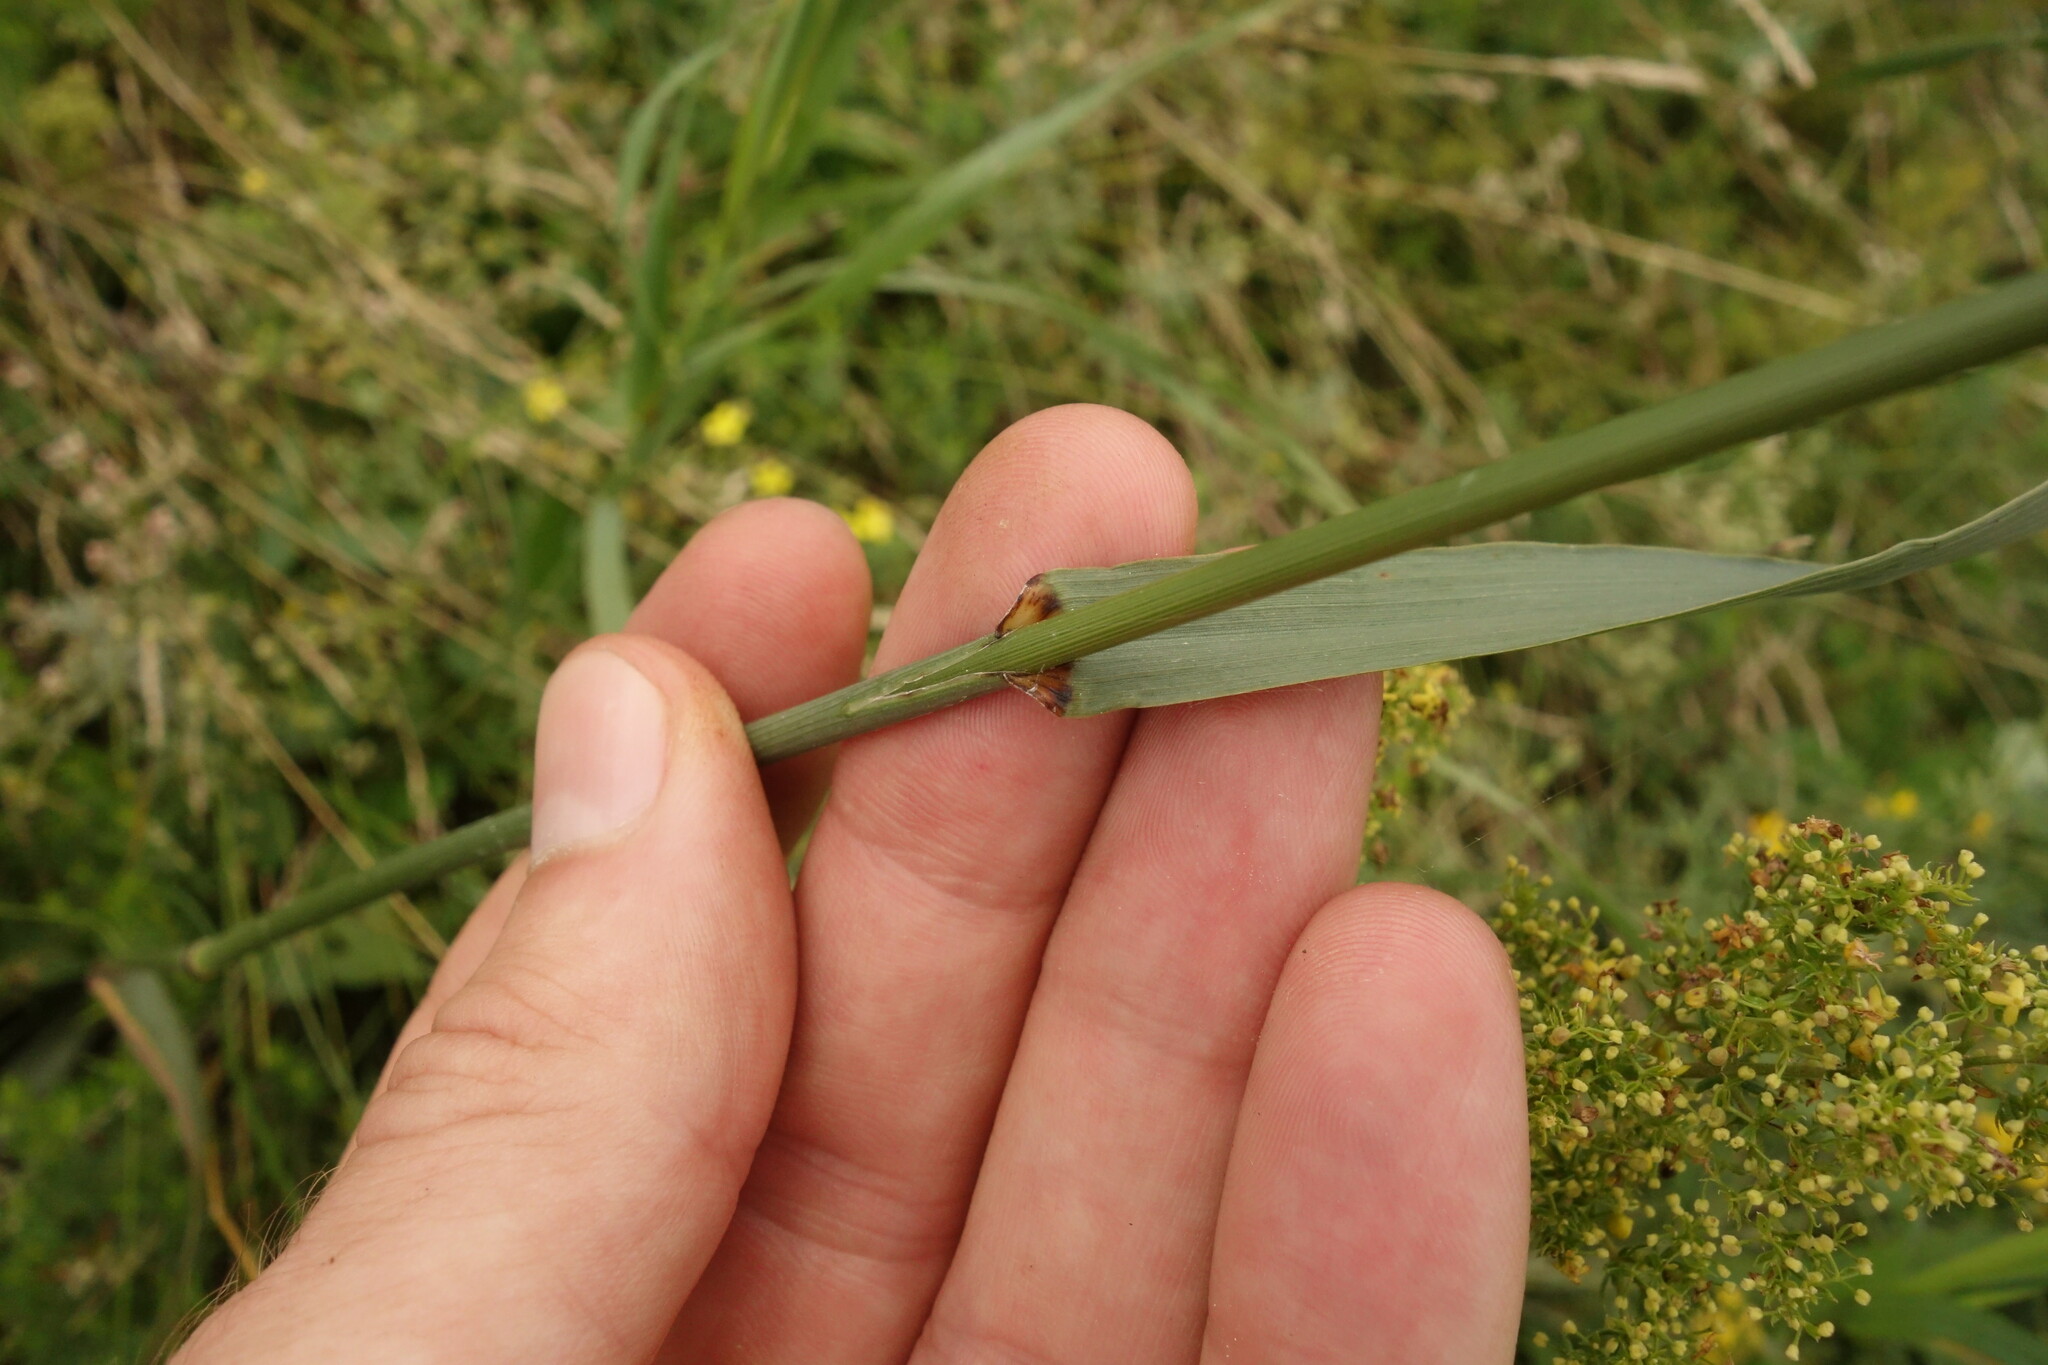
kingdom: Plantae
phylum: Tracheophyta
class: Liliopsida
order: Poales
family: Poaceae
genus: Bromus
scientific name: Bromus inermis
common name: Smooth brome
